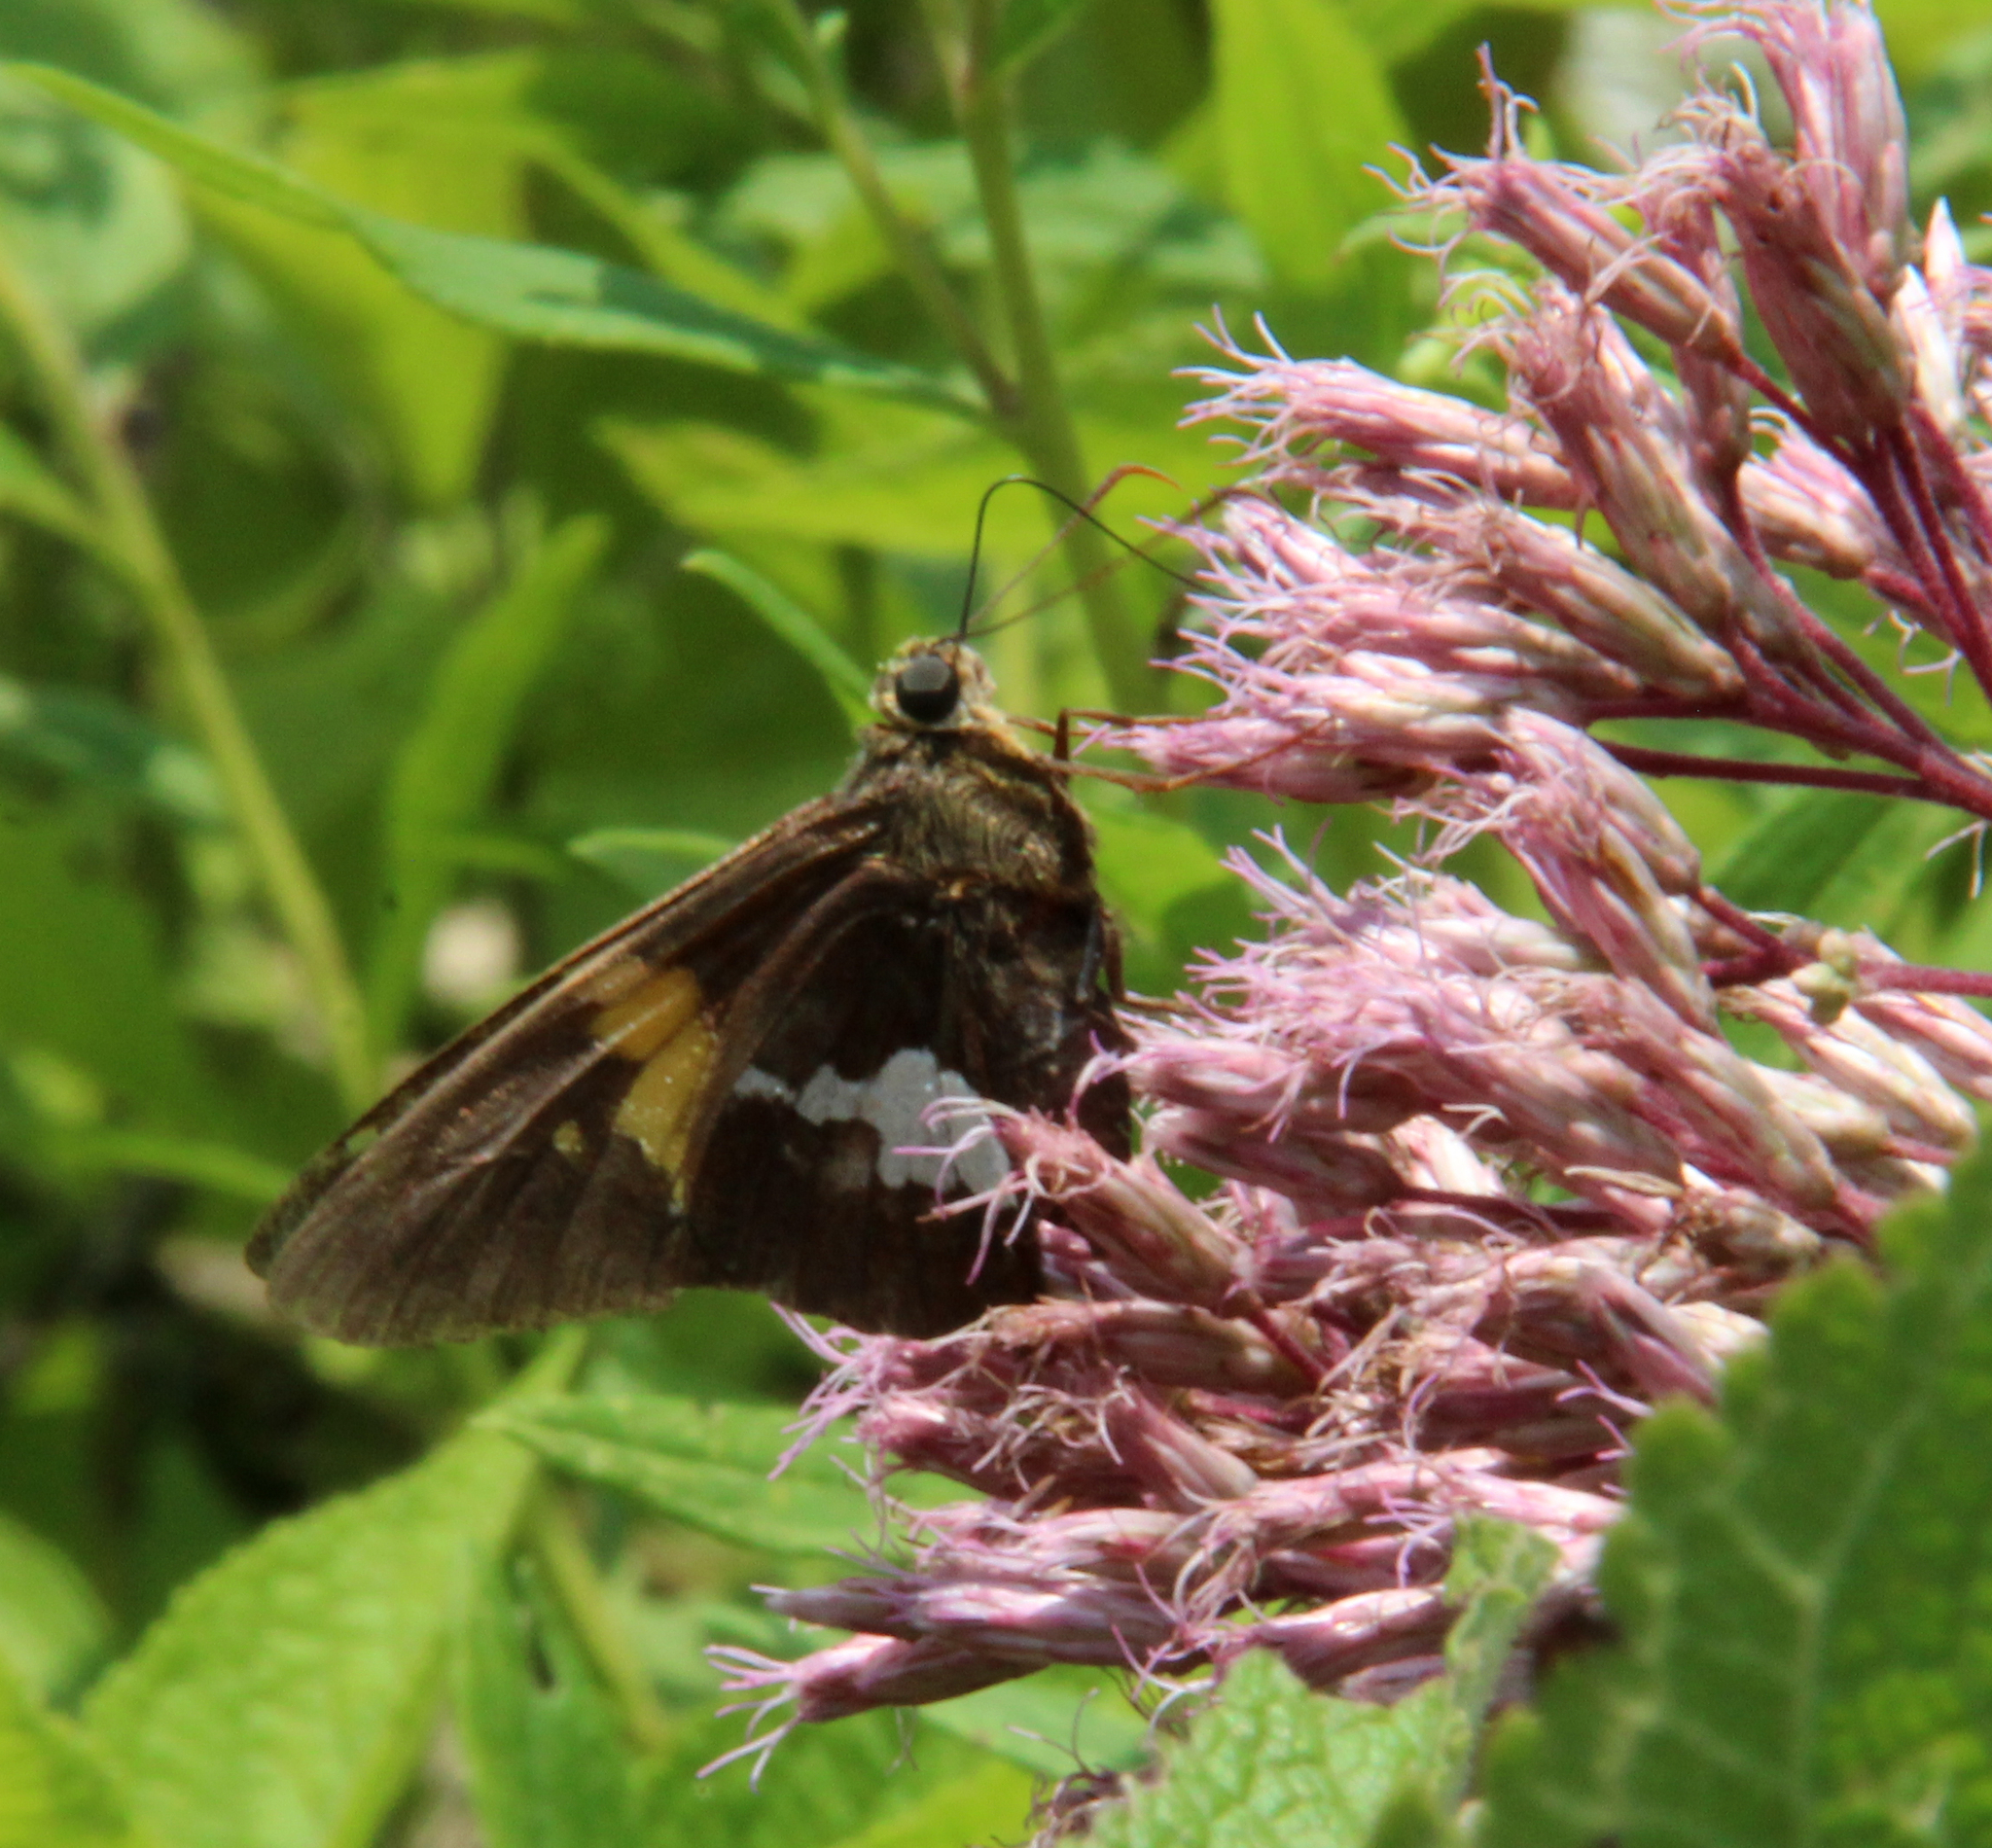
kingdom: Animalia
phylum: Arthropoda
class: Insecta
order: Lepidoptera
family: Hesperiidae
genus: Epargyreus
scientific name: Epargyreus clarus
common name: Silver-spotted skipper
